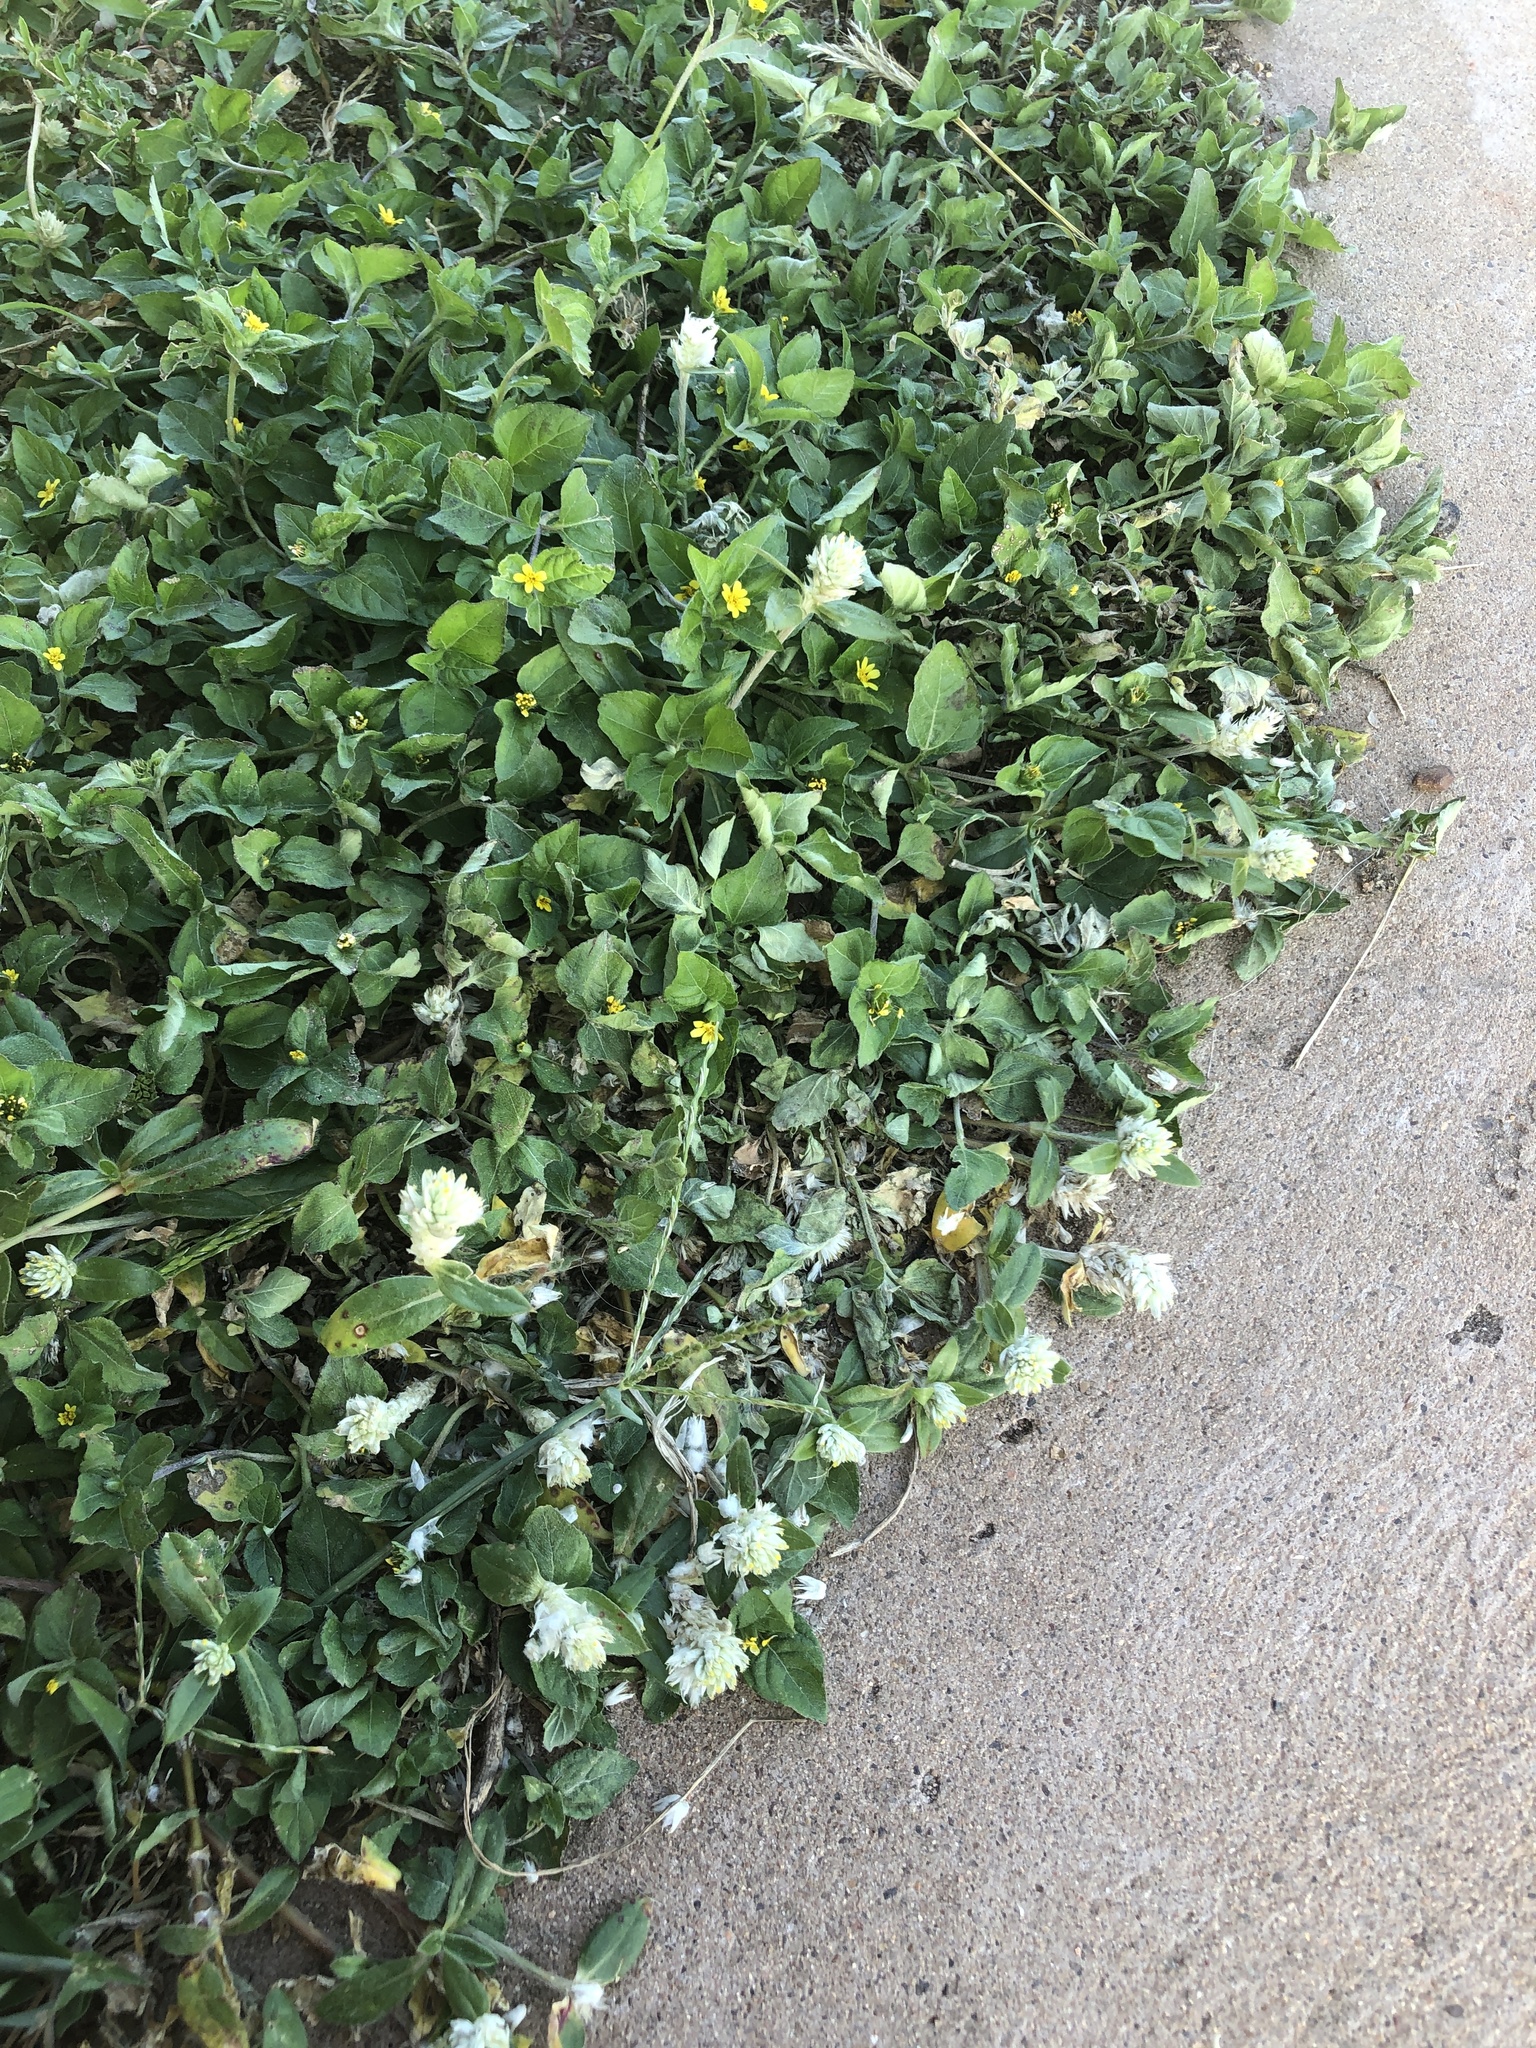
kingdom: Plantae
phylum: Tracheophyta
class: Magnoliopsida
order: Caryophyllales
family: Amaranthaceae
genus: Gomphrena
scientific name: Gomphrena serrata
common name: Arrasa con todo
